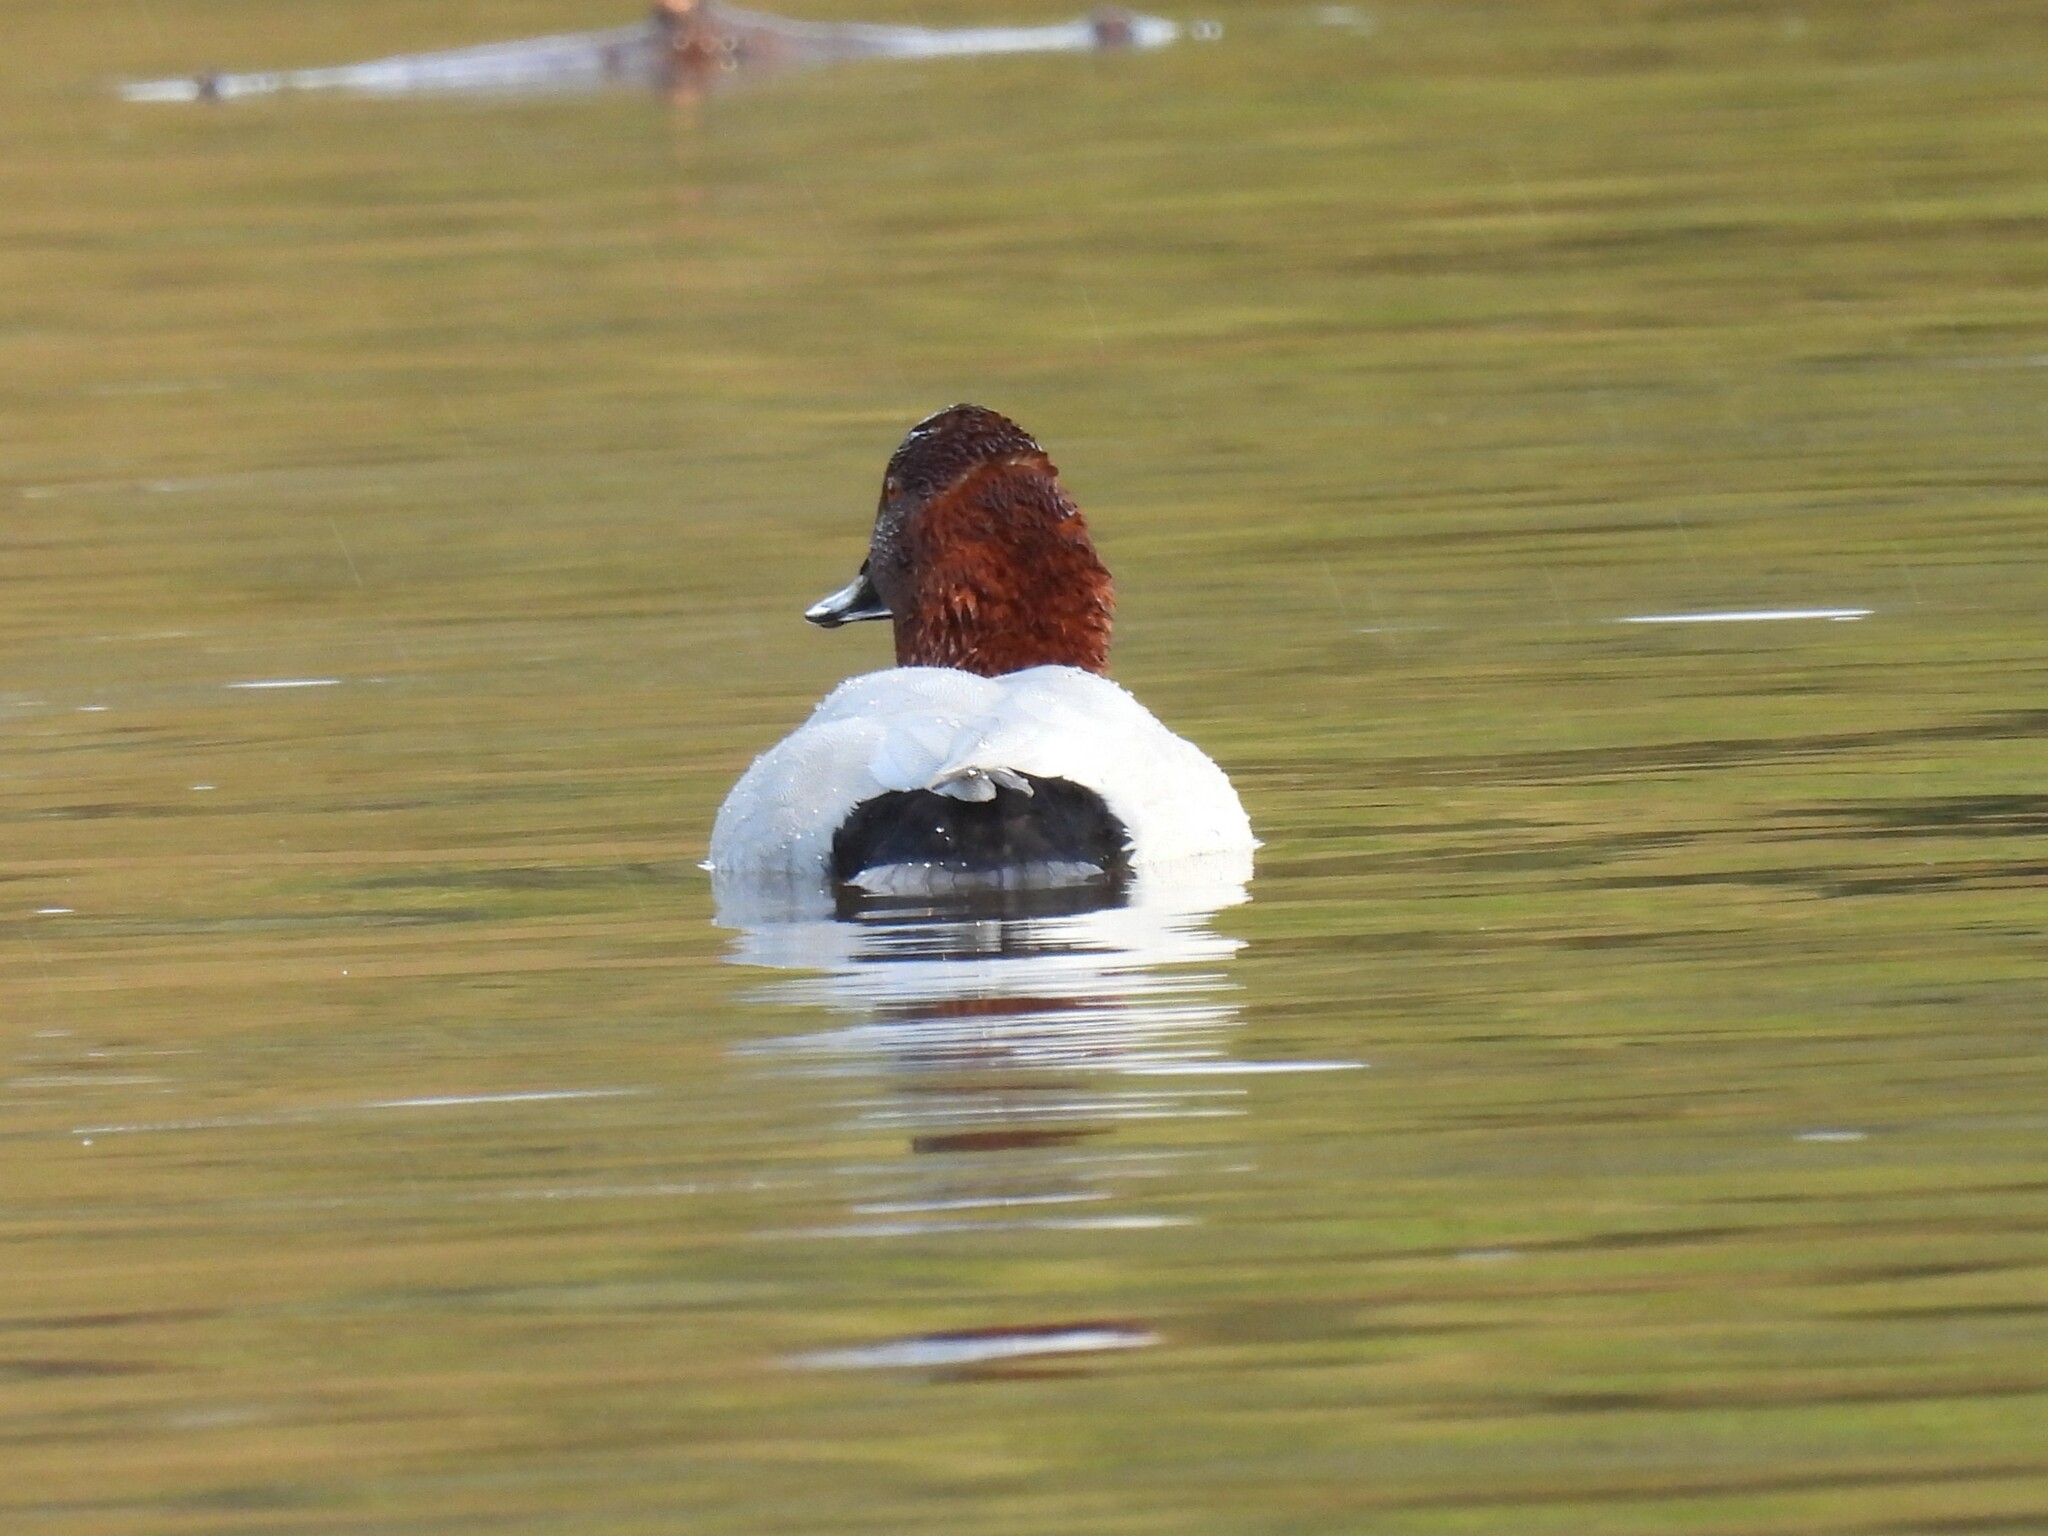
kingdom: Animalia
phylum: Chordata
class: Aves
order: Anseriformes
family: Anatidae
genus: Aythya
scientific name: Aythya ferina
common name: Common pochard
